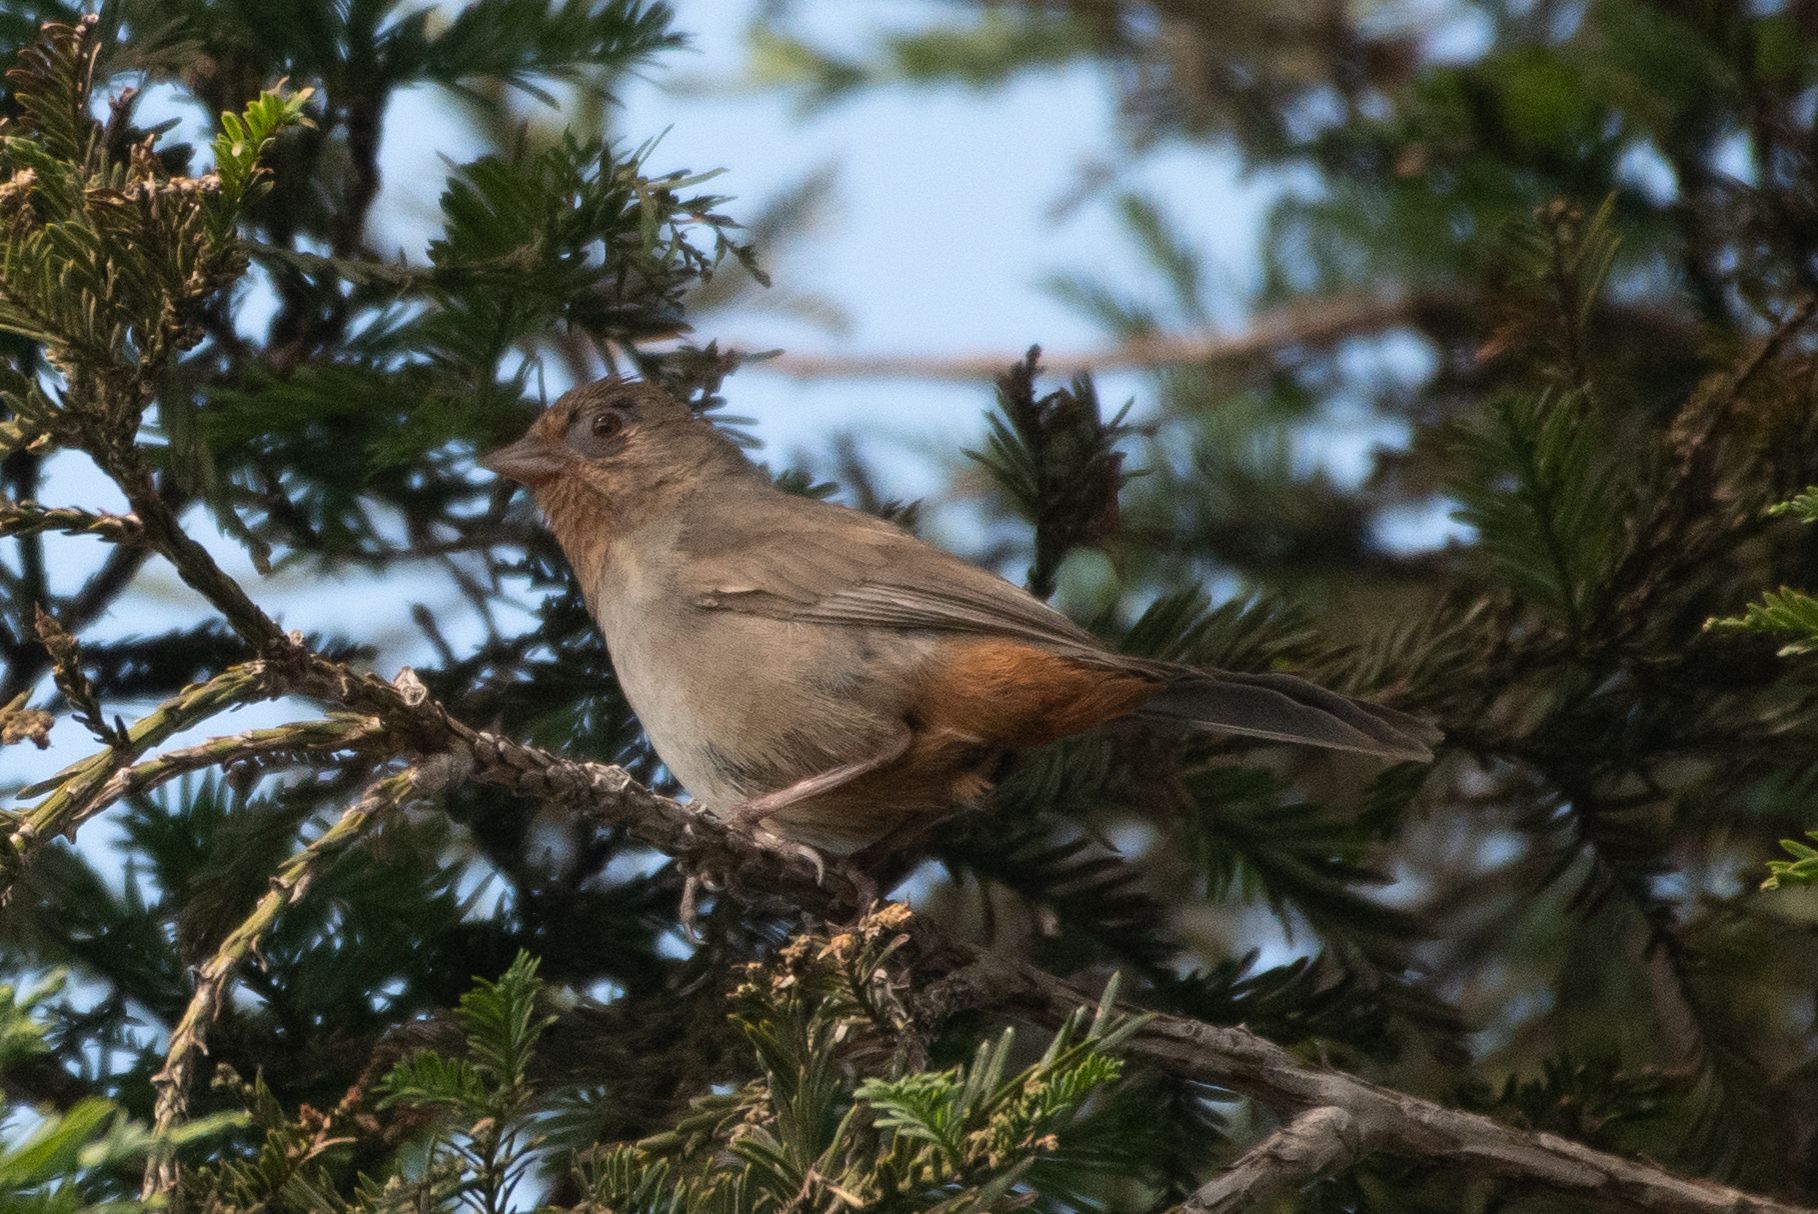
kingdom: Animalia
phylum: Chordata
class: Aves
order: Passeriformes
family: Passerellidae
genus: Melozone
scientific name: Melozone crissalis
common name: California towhee
